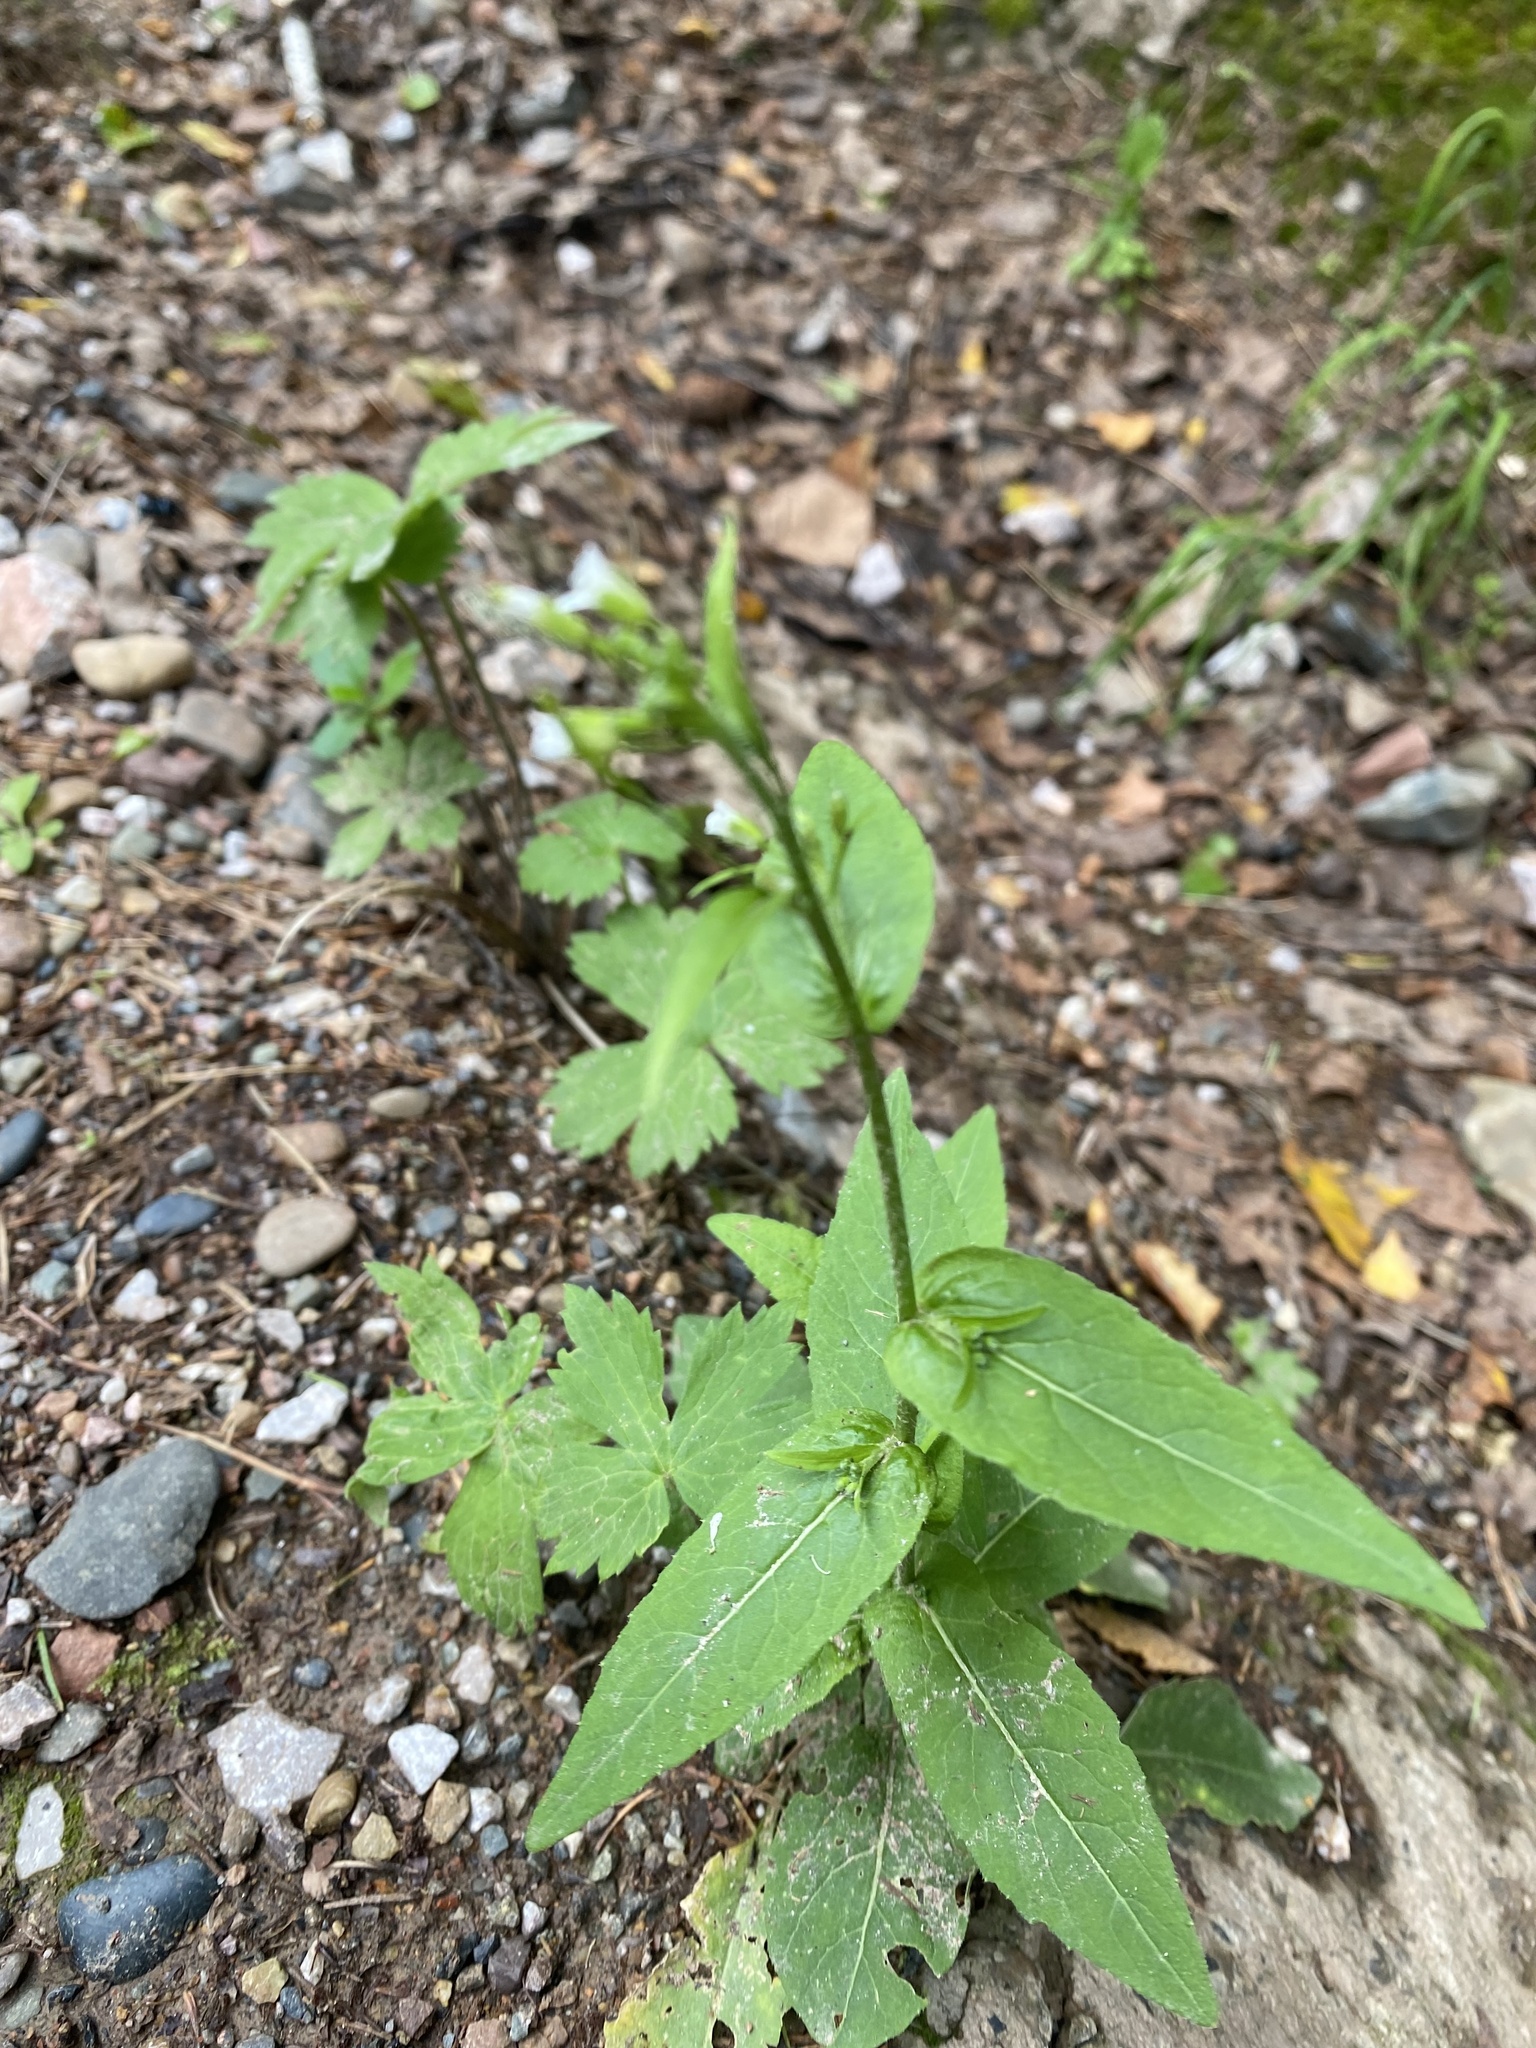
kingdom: Plantae
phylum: Tracheophyta
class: Magnoliopsida
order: Brassicales
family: Brassicaceae
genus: Catolobus
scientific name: Catolobus pendulus
